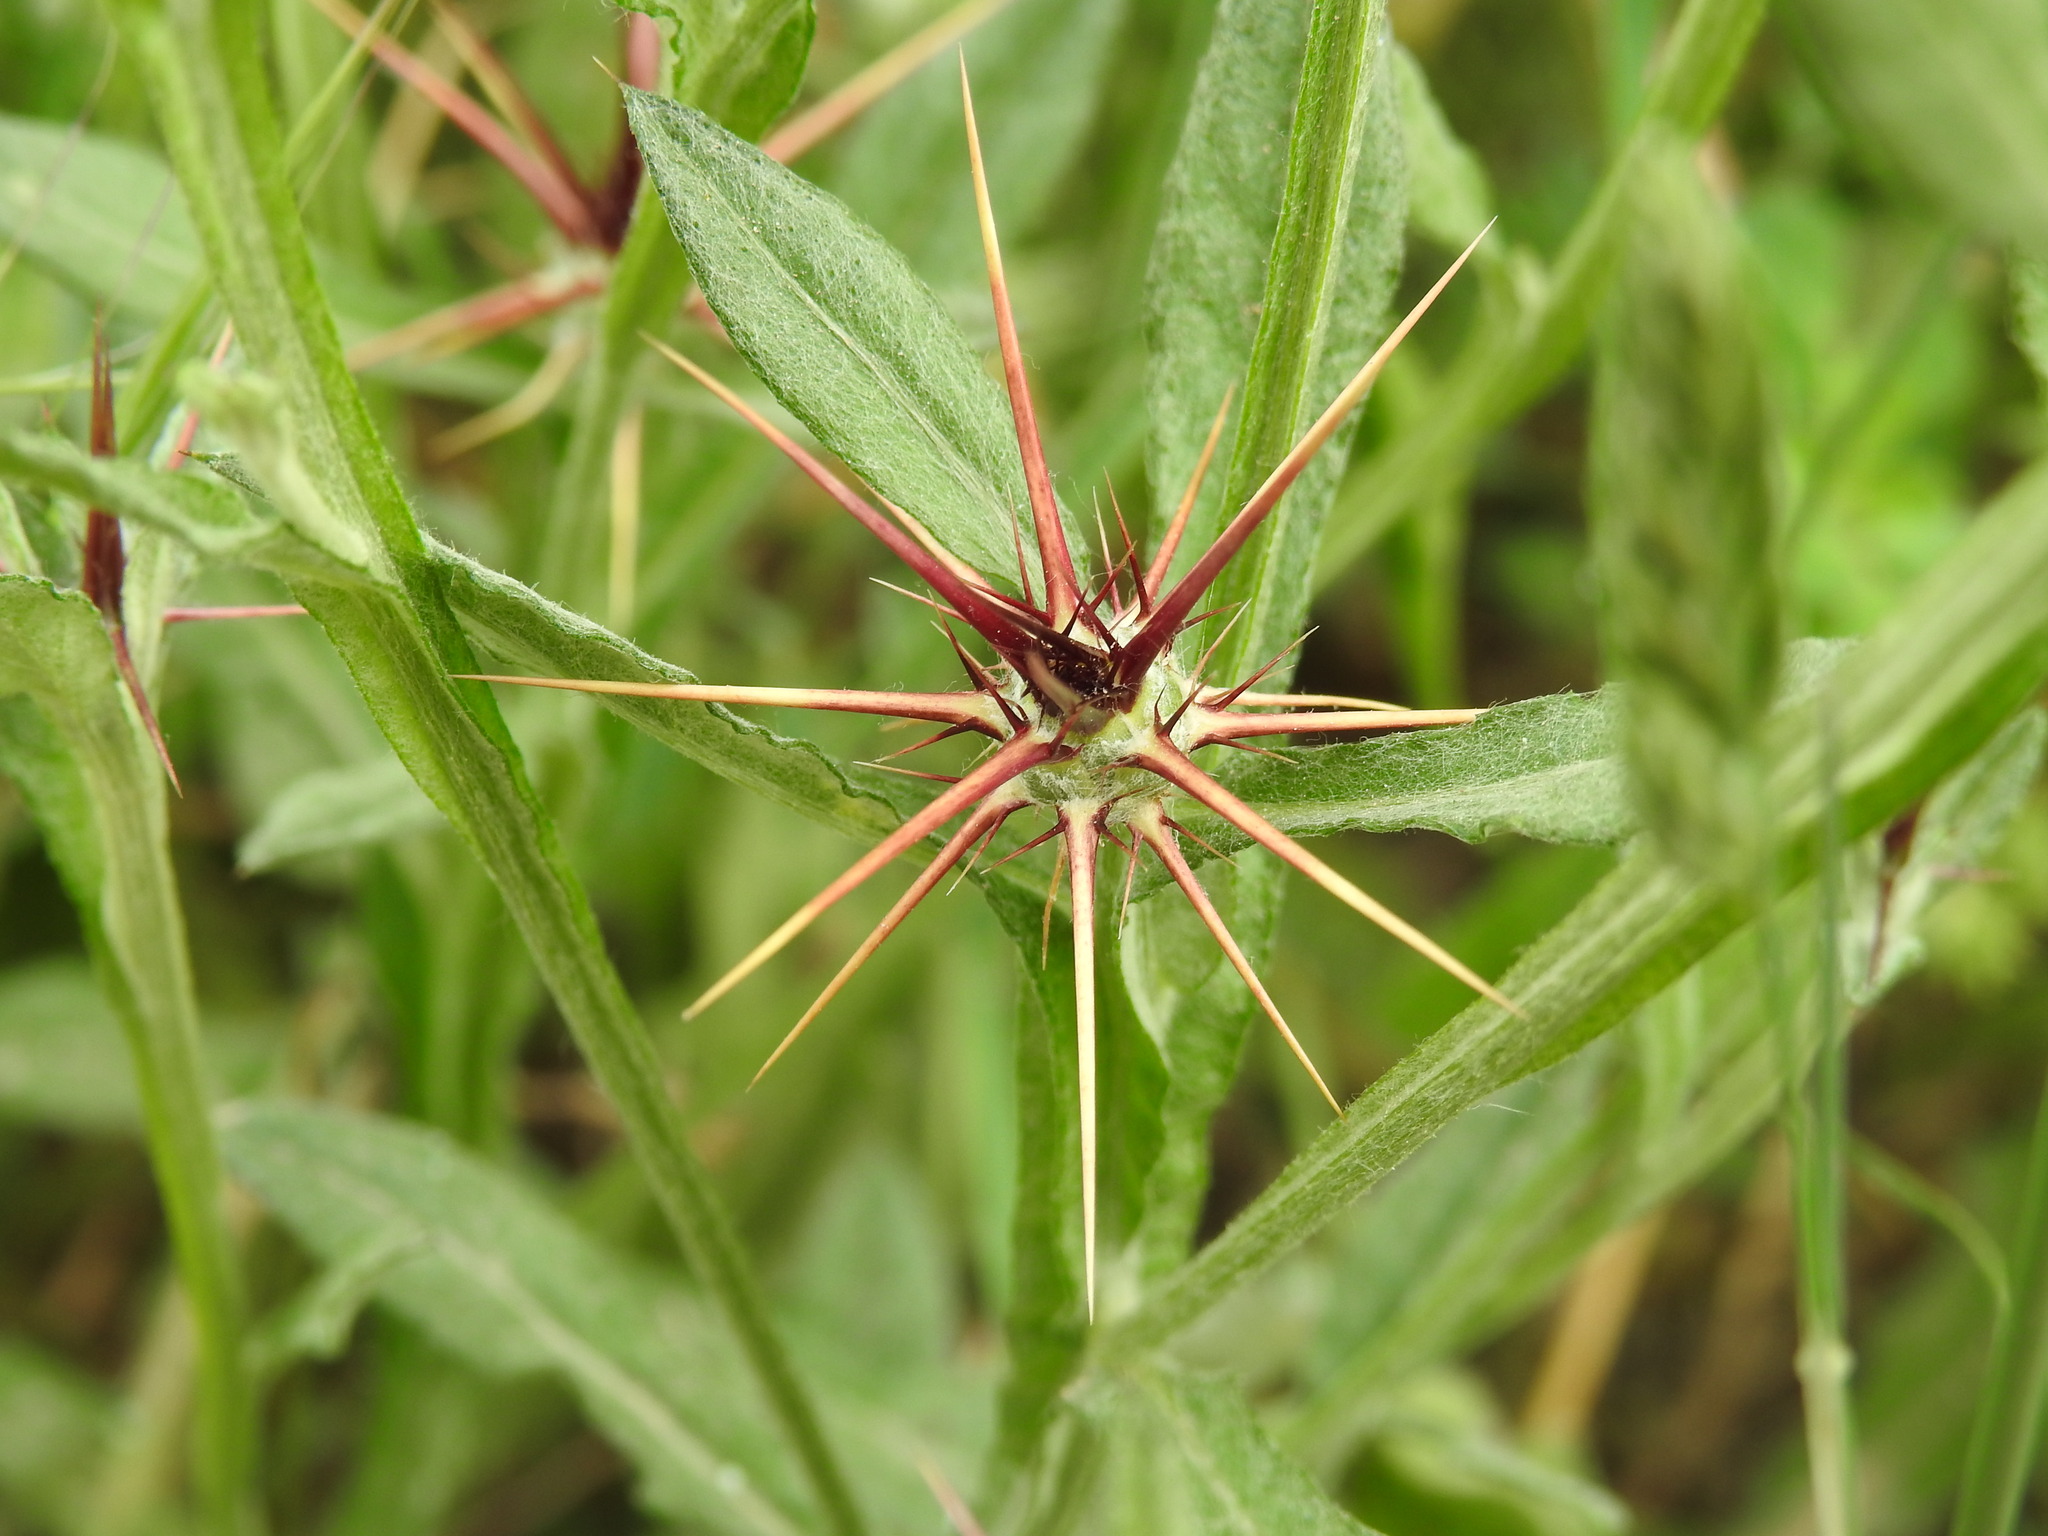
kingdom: Plantae
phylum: Tracheophyta
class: Magnoliopsida
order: Asterales
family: Asteraceae
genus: Centaurea
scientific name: Centaurea idaea
